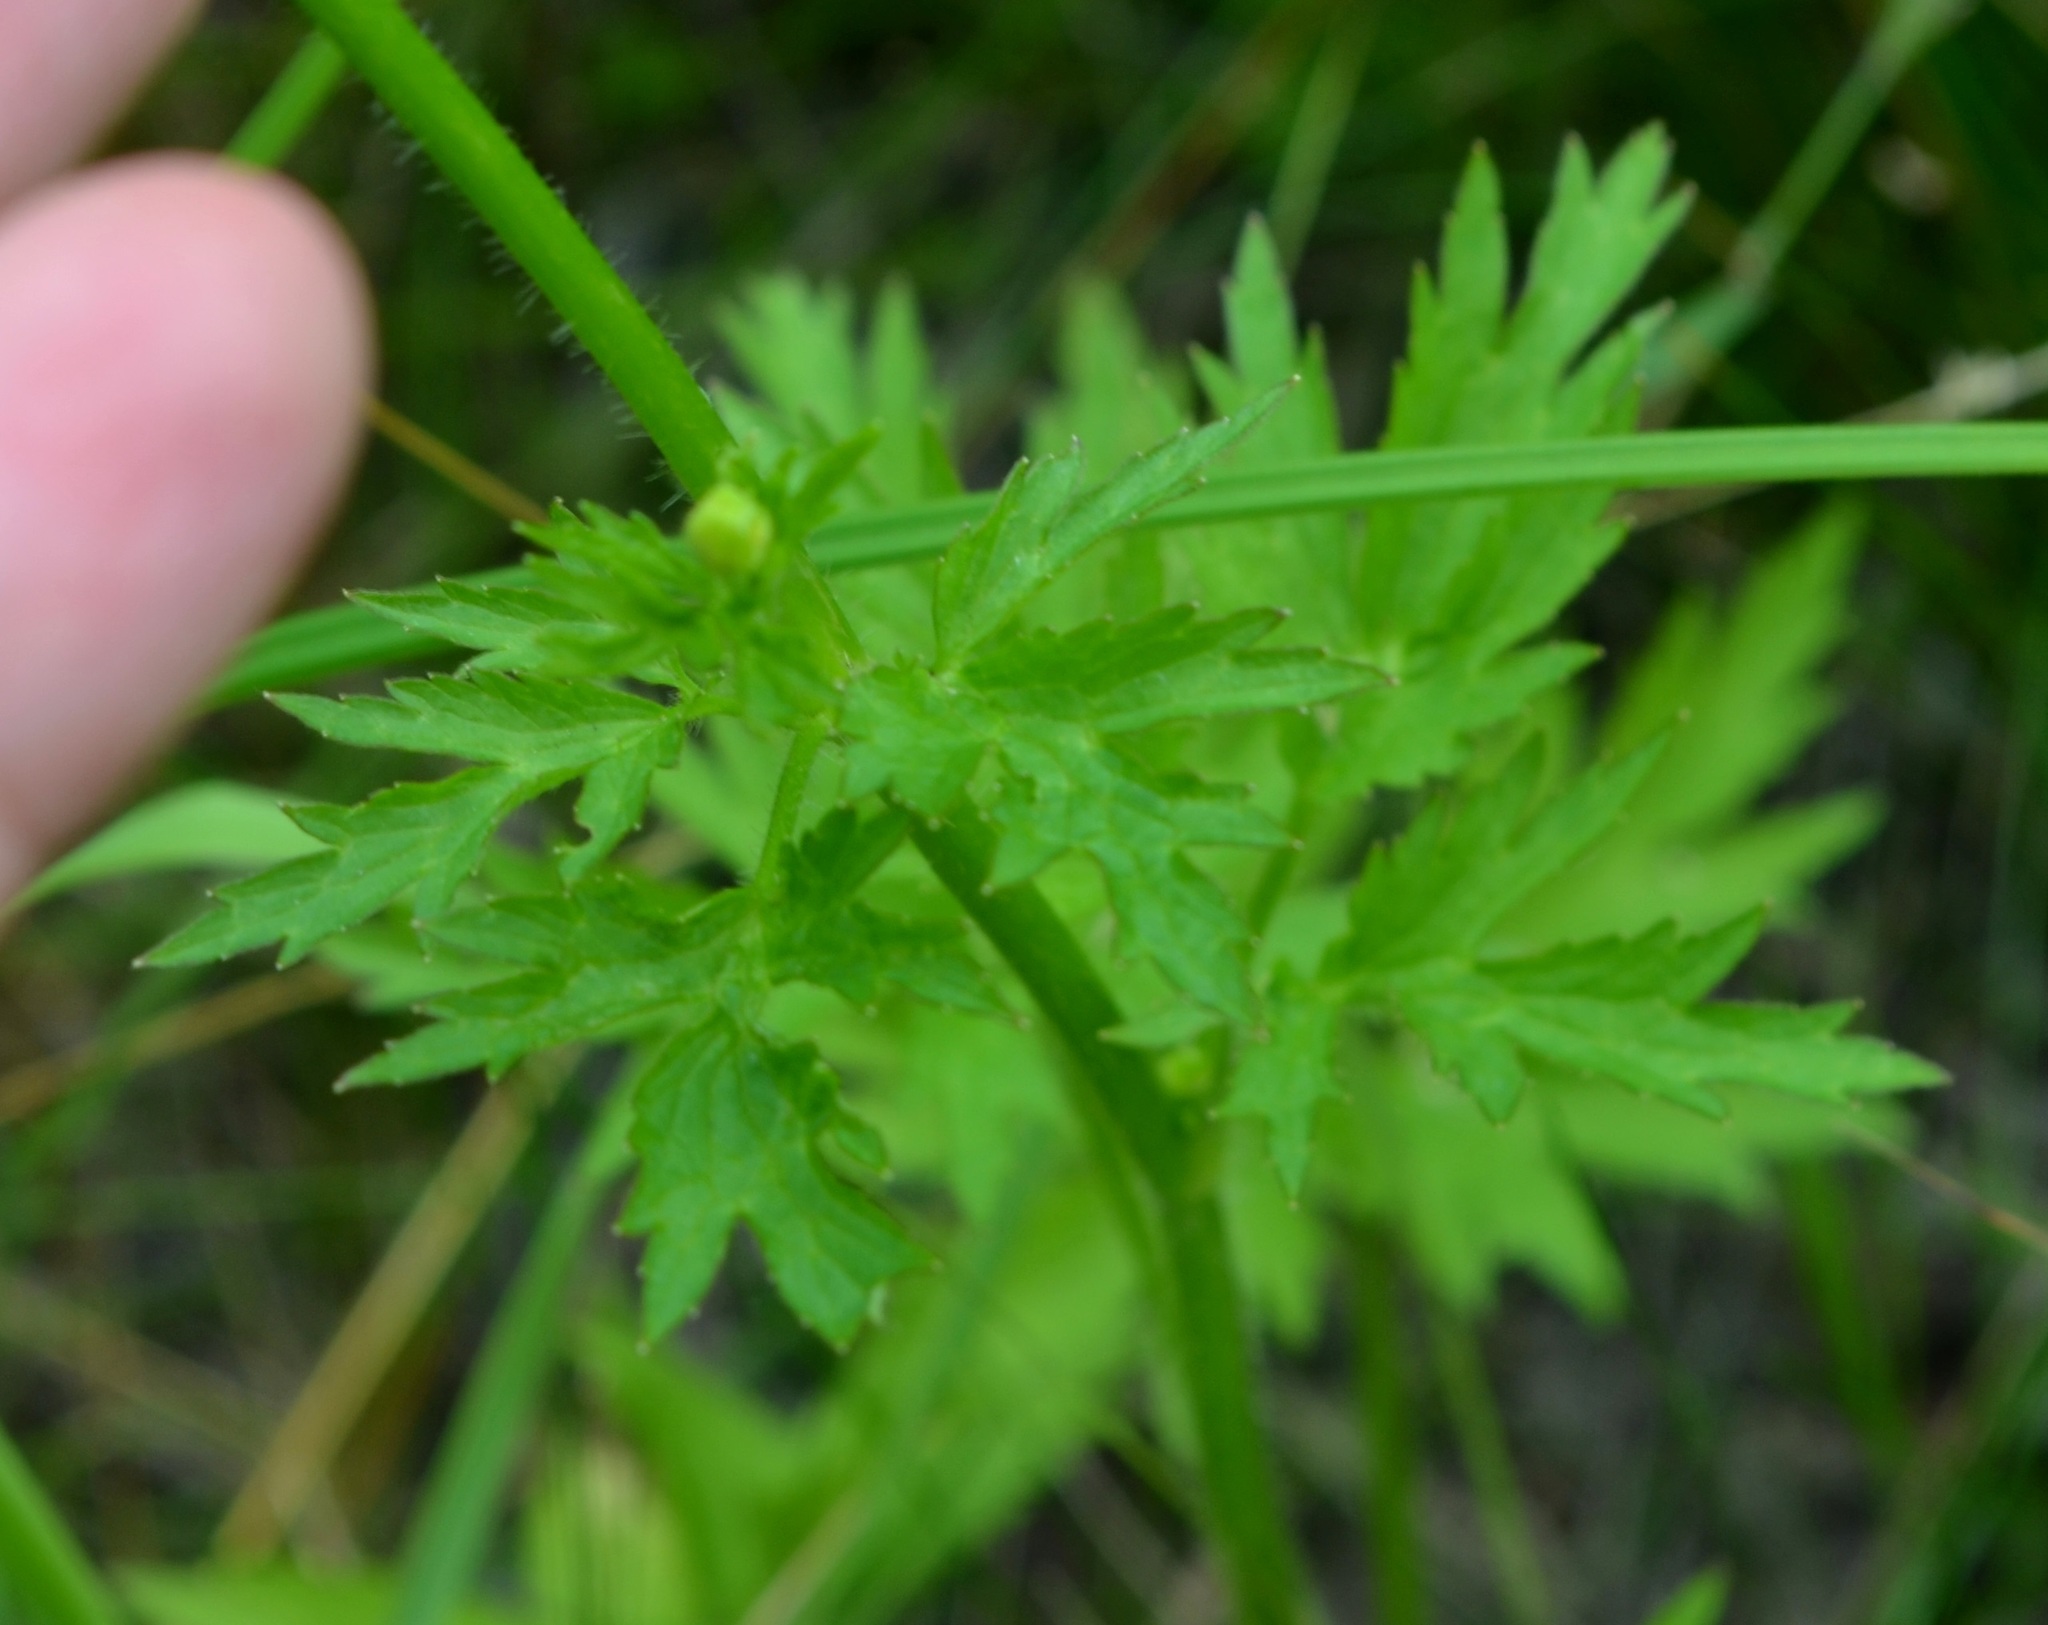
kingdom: Plantae
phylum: Tracheophyta
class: Magnoliopsida
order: Ranunculales
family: Ranunculaceae
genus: Ranunculus
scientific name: Ranunculus pensylvanicus
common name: Bristly buttercup
